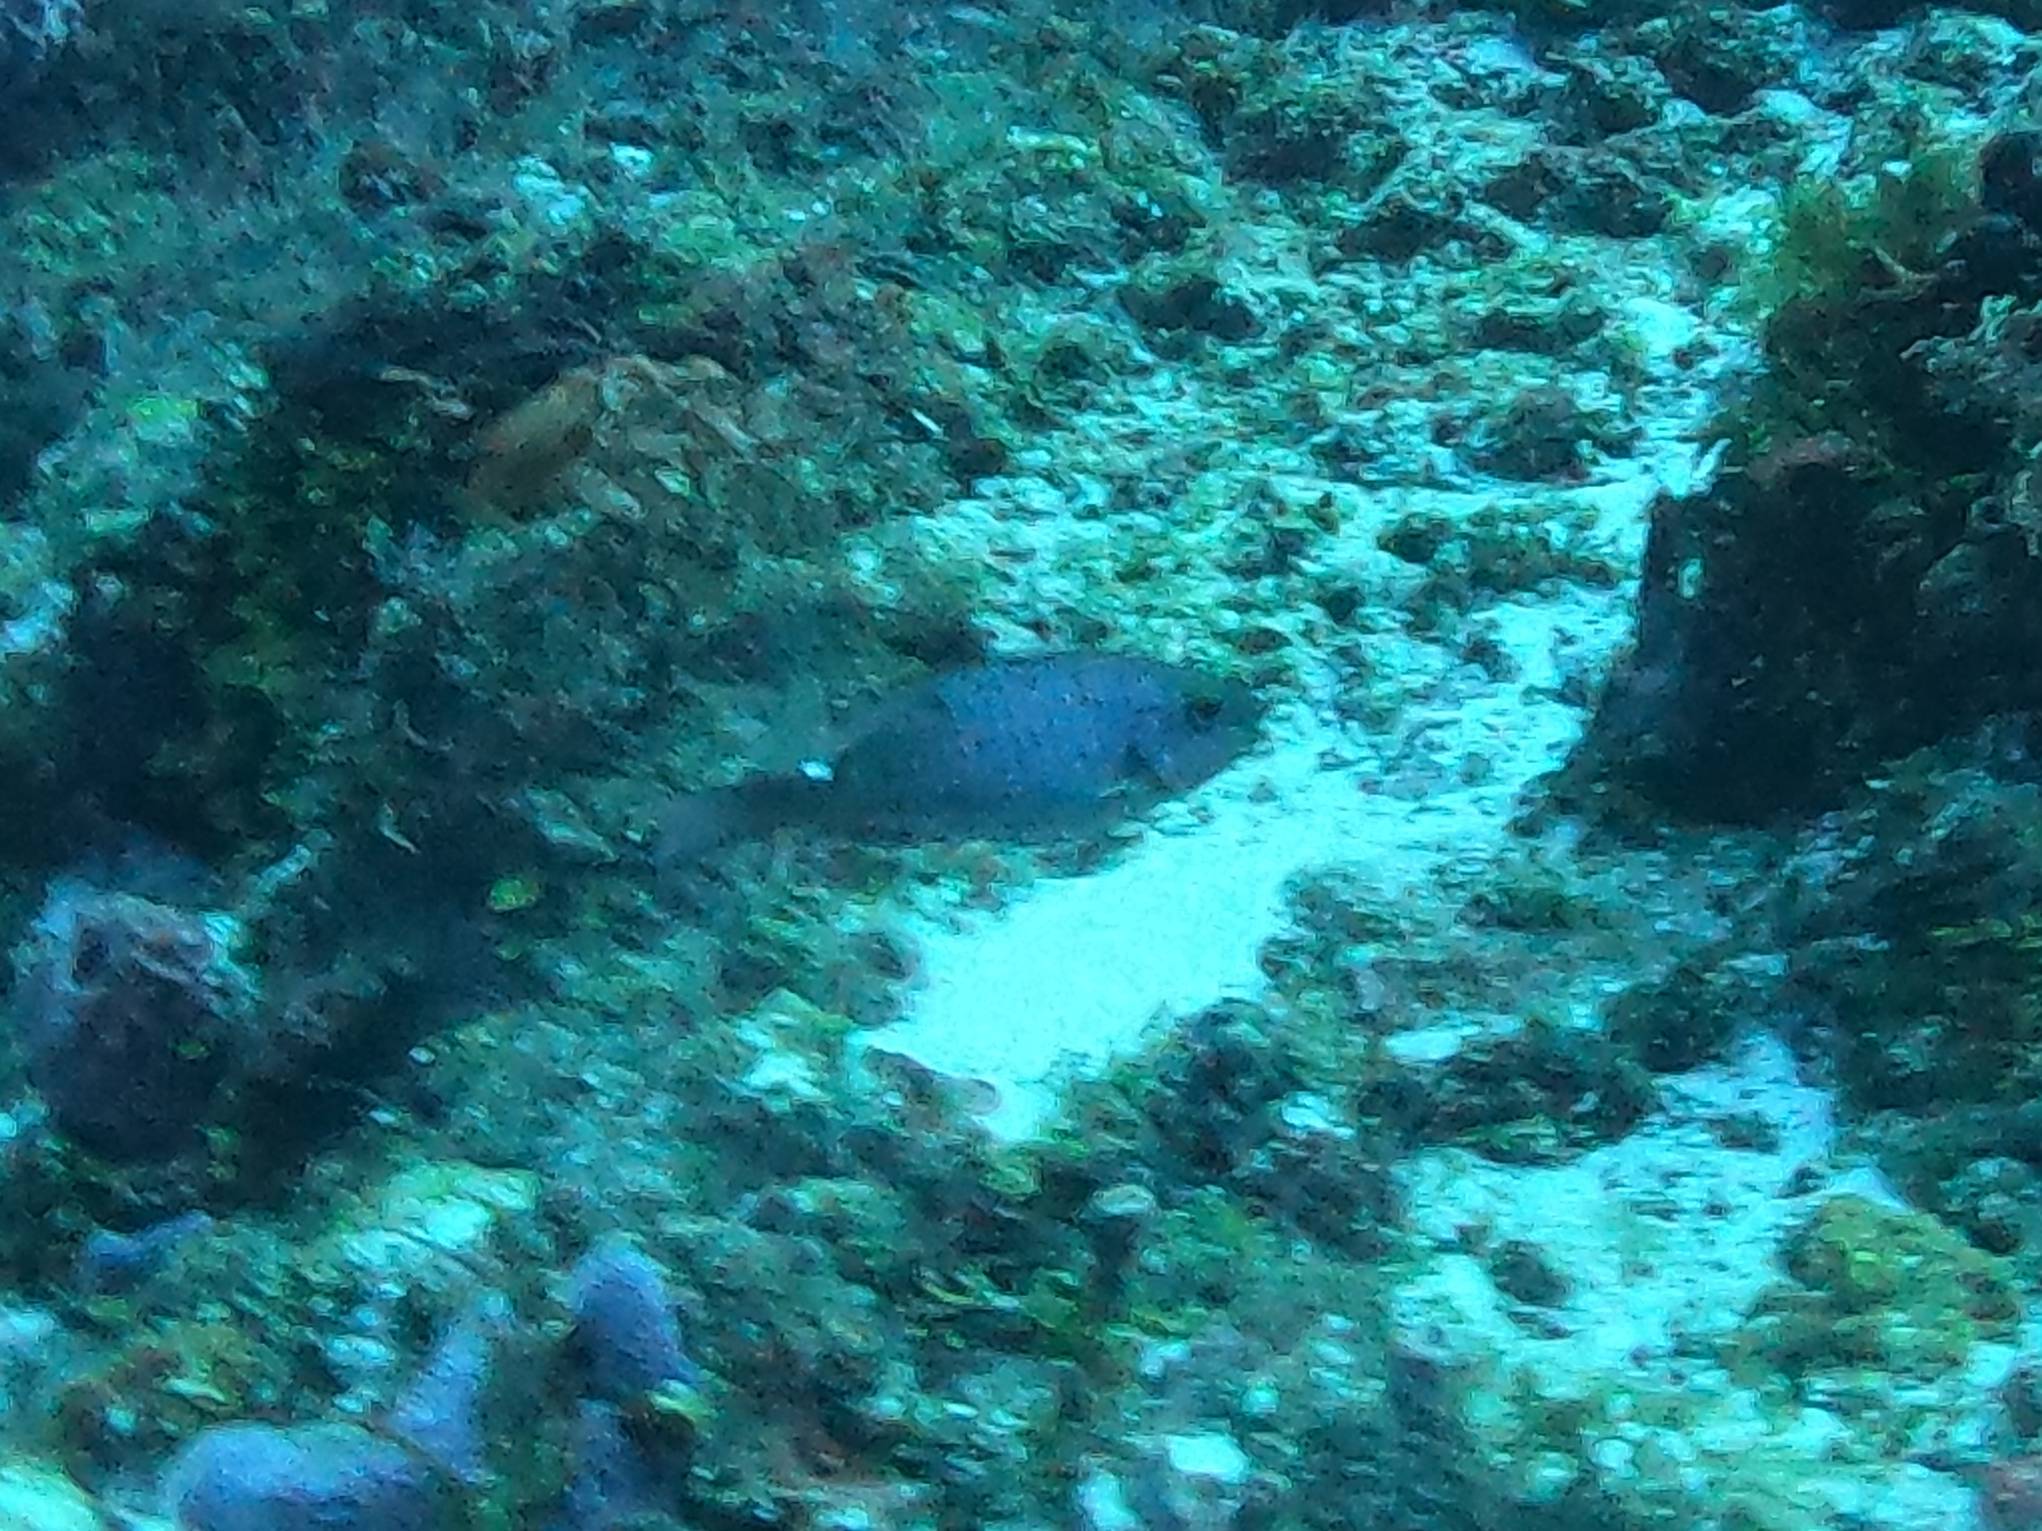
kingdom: Animalia
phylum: Chordata
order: Perciformes
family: Scaridae
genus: Sparisoma
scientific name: Sparisoma aurofrenatum
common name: Redband parrotfish
